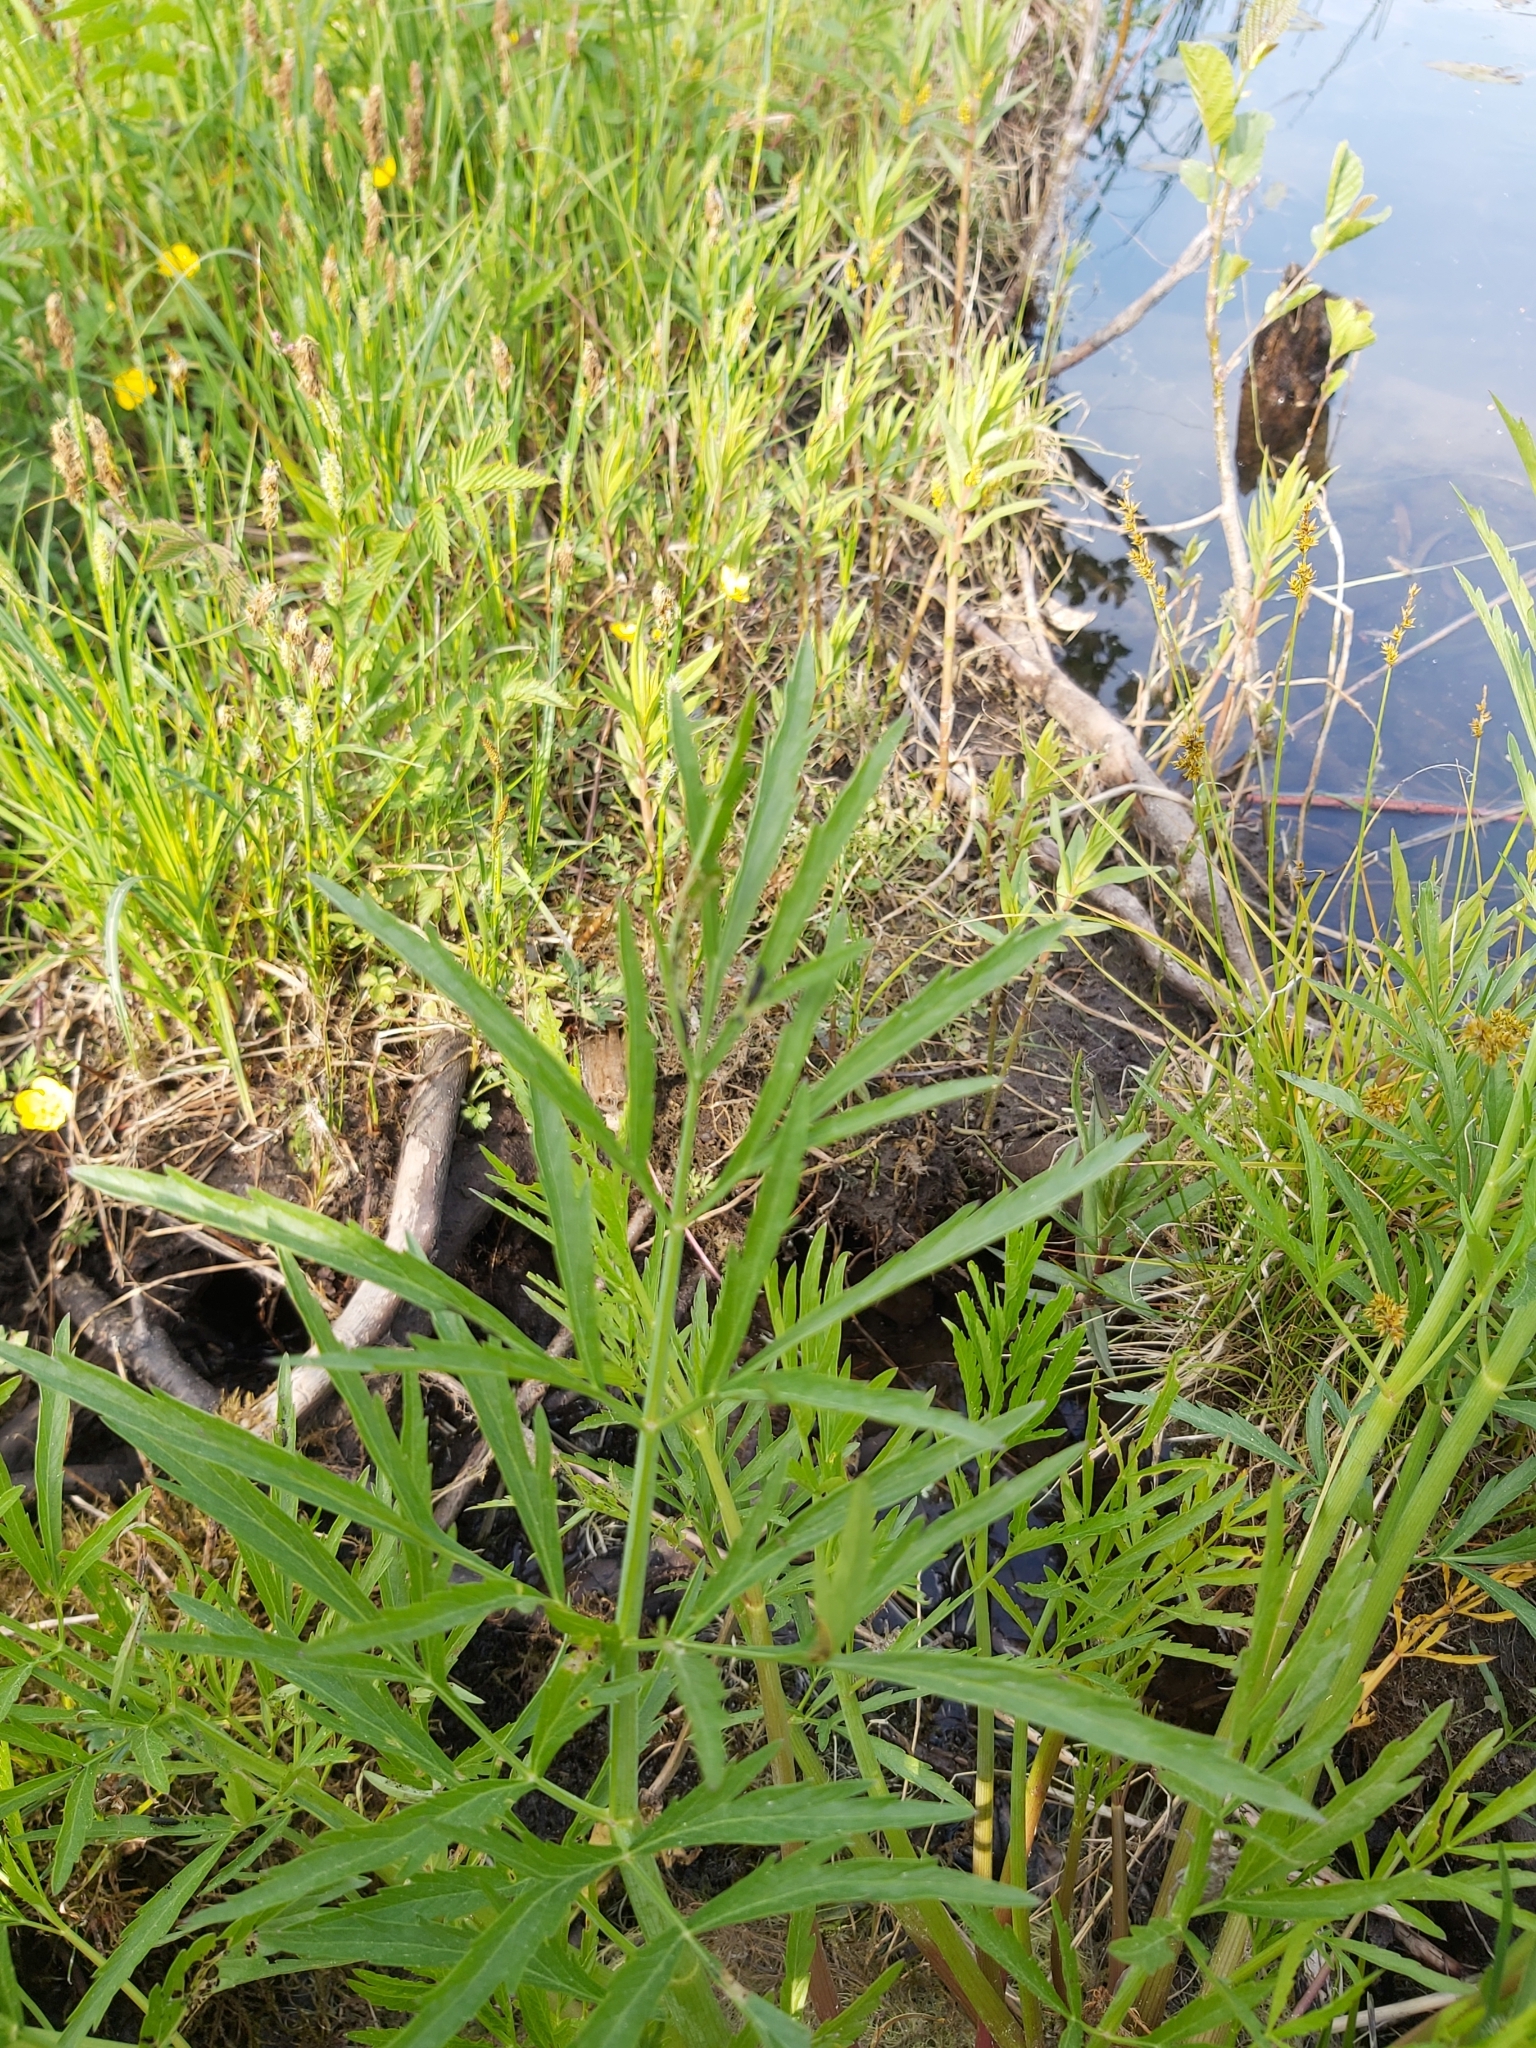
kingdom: Plantae
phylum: Tracheophyta
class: Magnoliopsida
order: Apiales
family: Apiaceae
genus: Cicuta
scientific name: Cicuta virosa
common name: Cowbane
